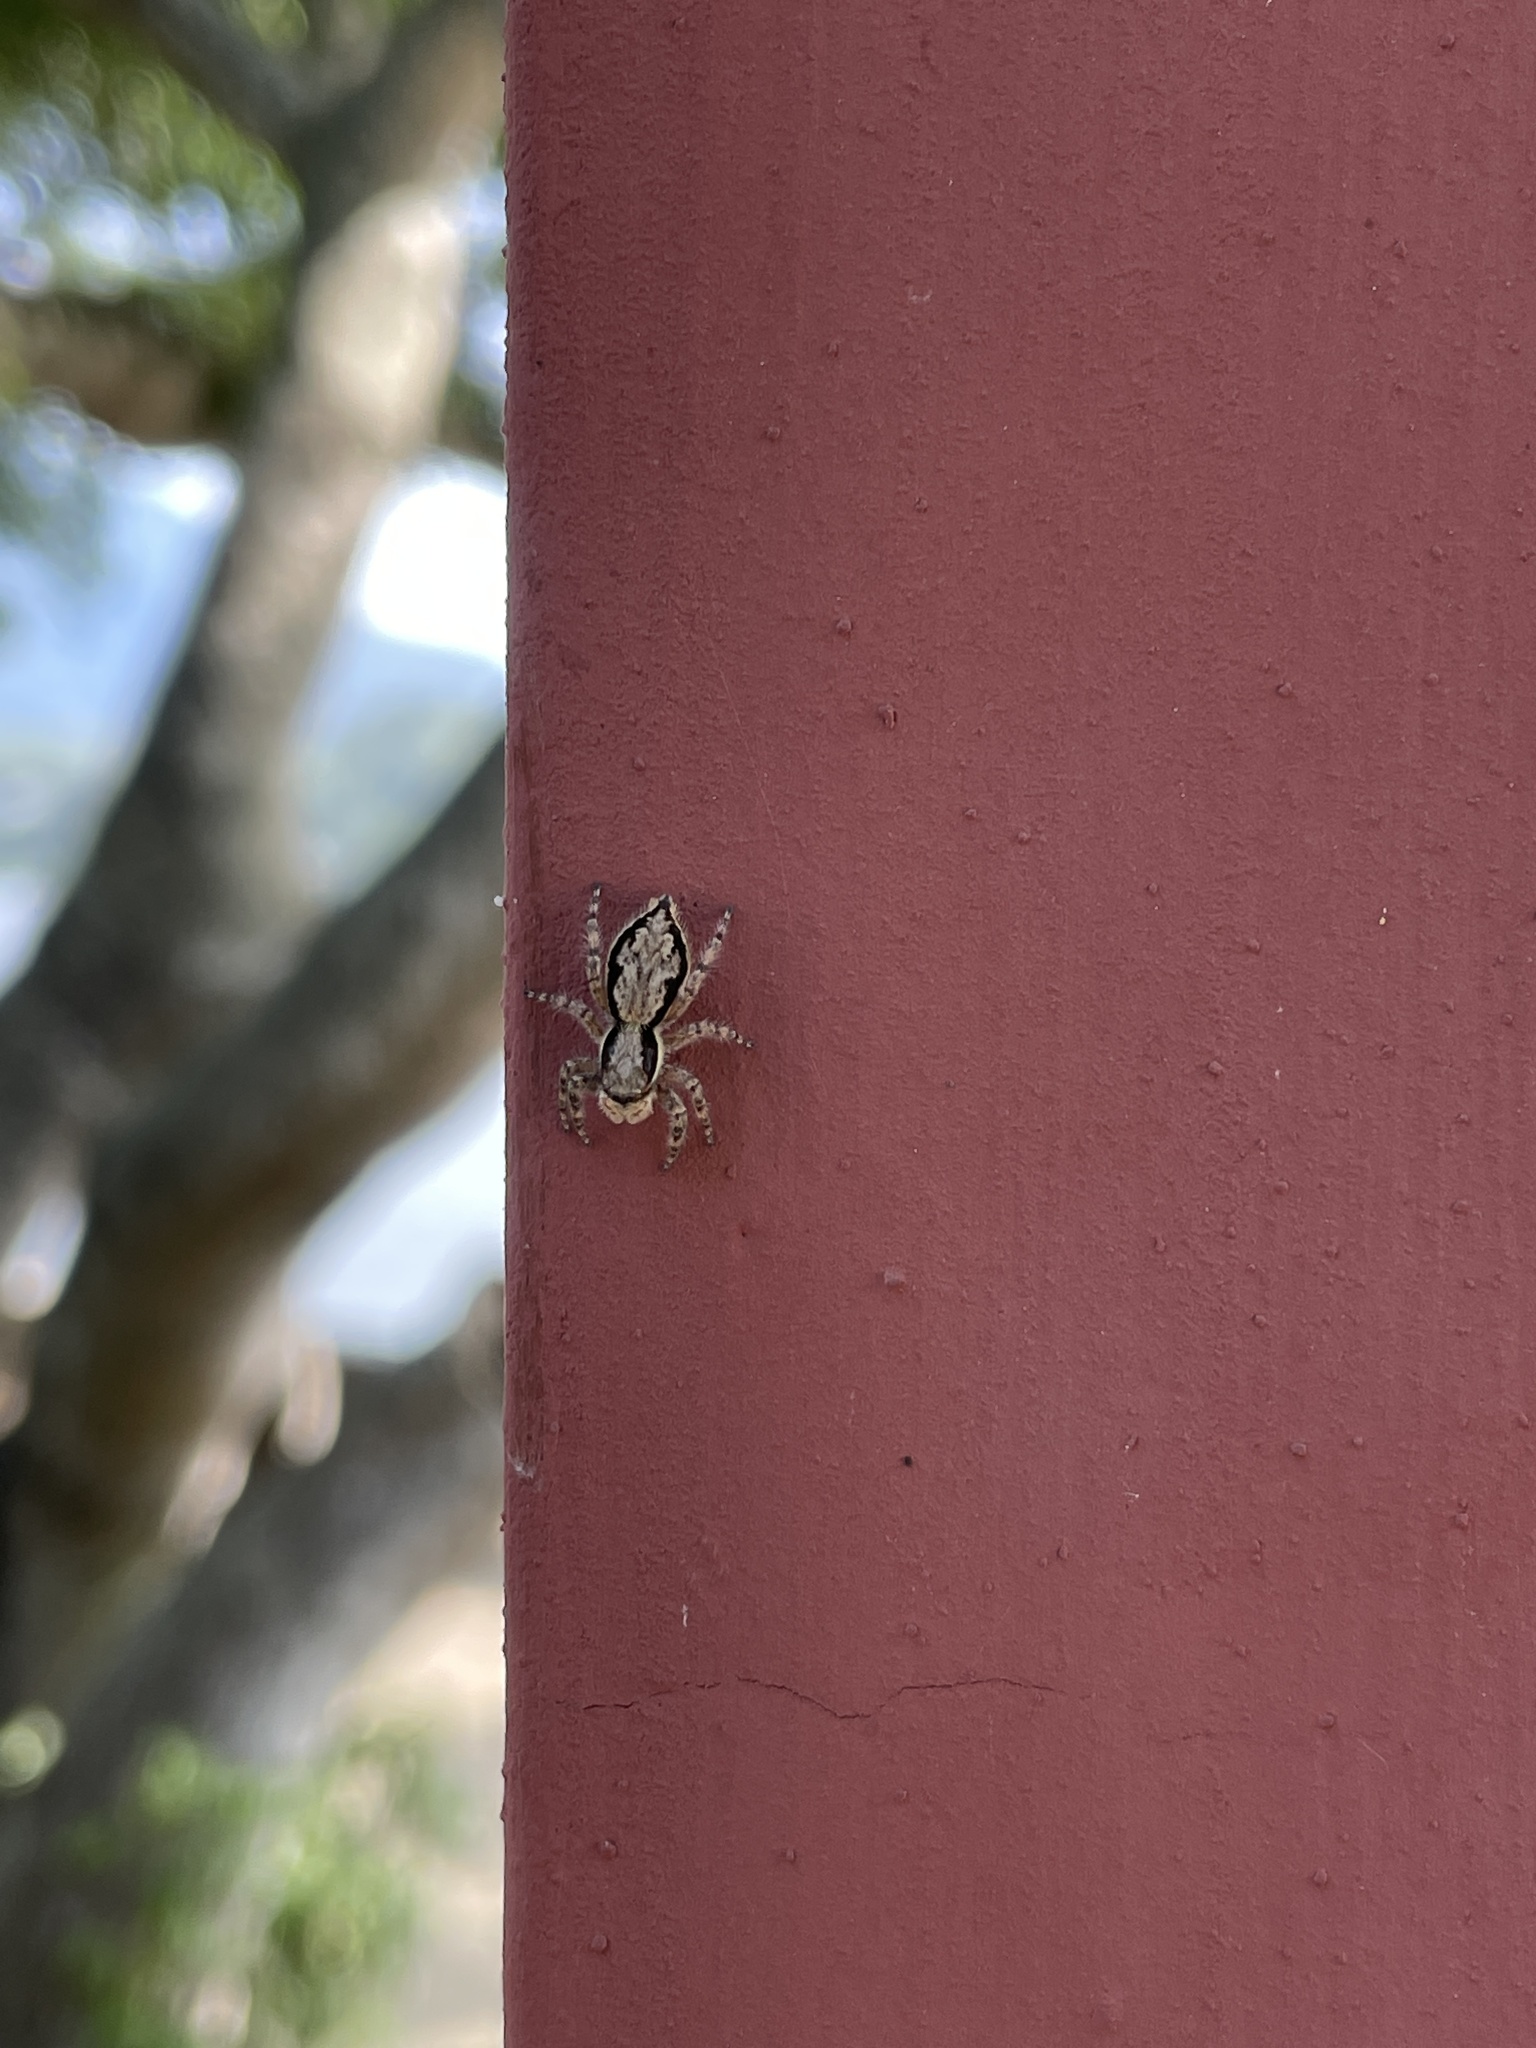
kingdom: Animalia
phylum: Arthropoda
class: Arachnida
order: Araneae
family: Salticidae
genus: Menemerus
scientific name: Menemerus bivittatus
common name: Gray wall jumper
